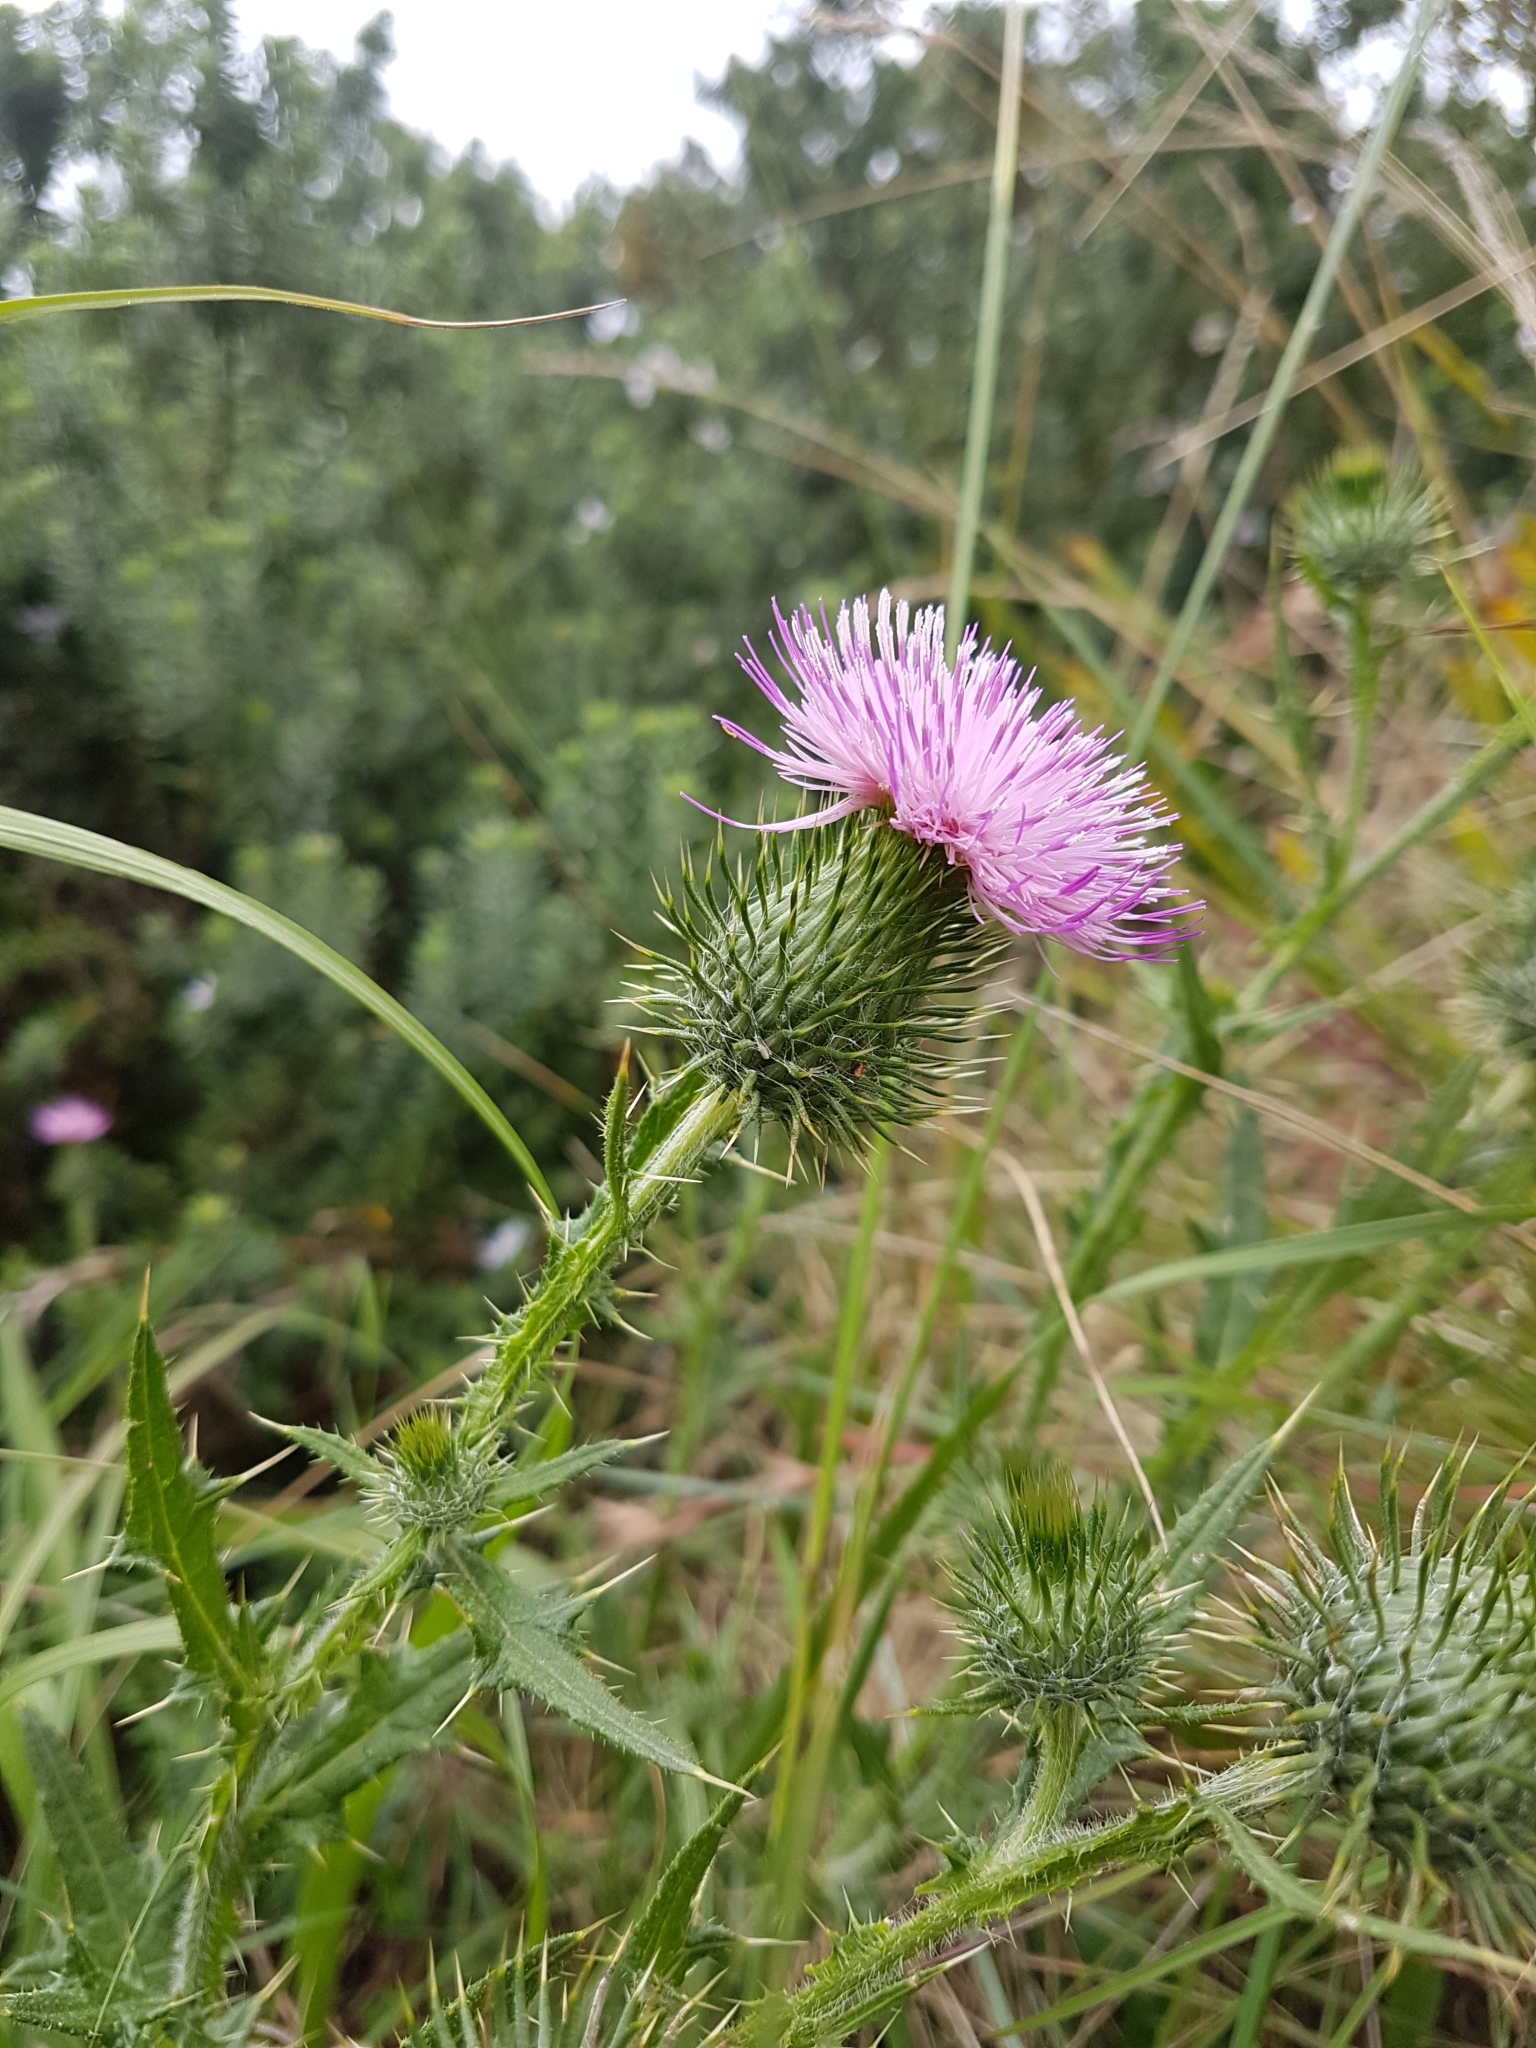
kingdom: Plantae
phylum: Tracheophyta
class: Magnoliopsida
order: Asterales
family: Asteraceae
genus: Cirsium
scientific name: Cirsium vulgare
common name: Bull thistle
